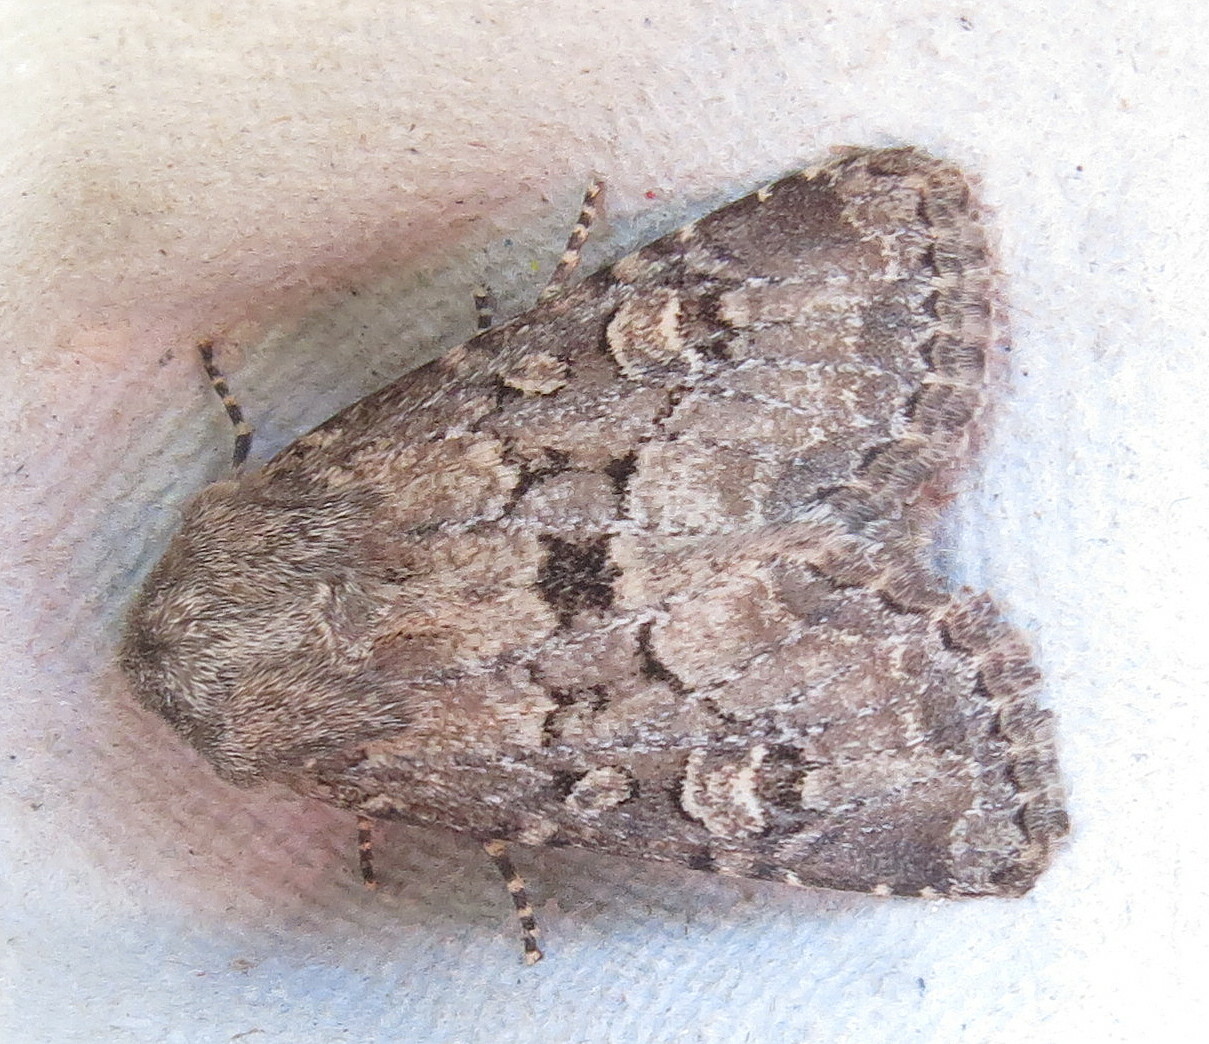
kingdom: Animalia
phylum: Arthropoda
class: Insecta
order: Lepidoptera
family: Noctuidae
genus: Luperina
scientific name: Luperina testacea
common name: Flounced rustic
